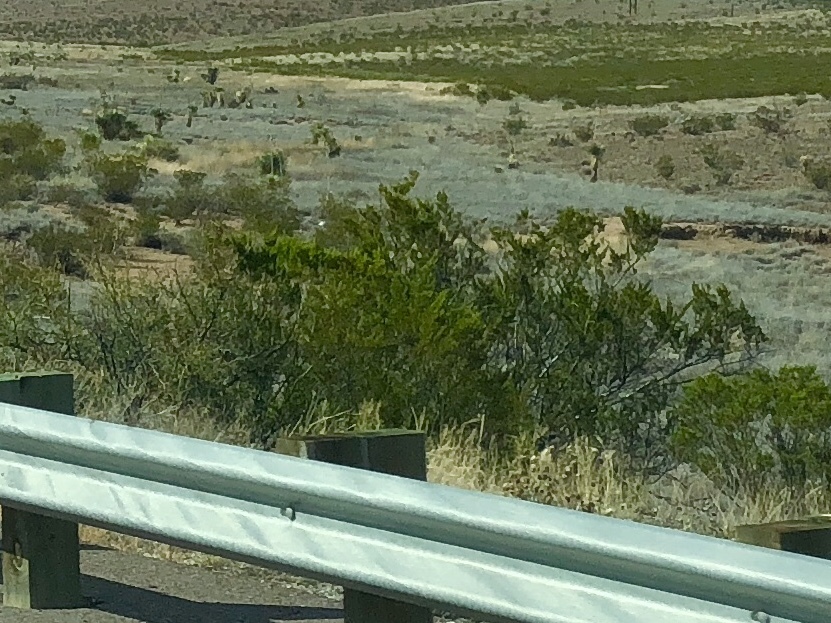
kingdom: Plantae
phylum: Tracheophyta
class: Magnoliopsida
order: Zygophyllales
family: Zygophyllaceae
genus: Larrea
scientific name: Larrea tridentata
